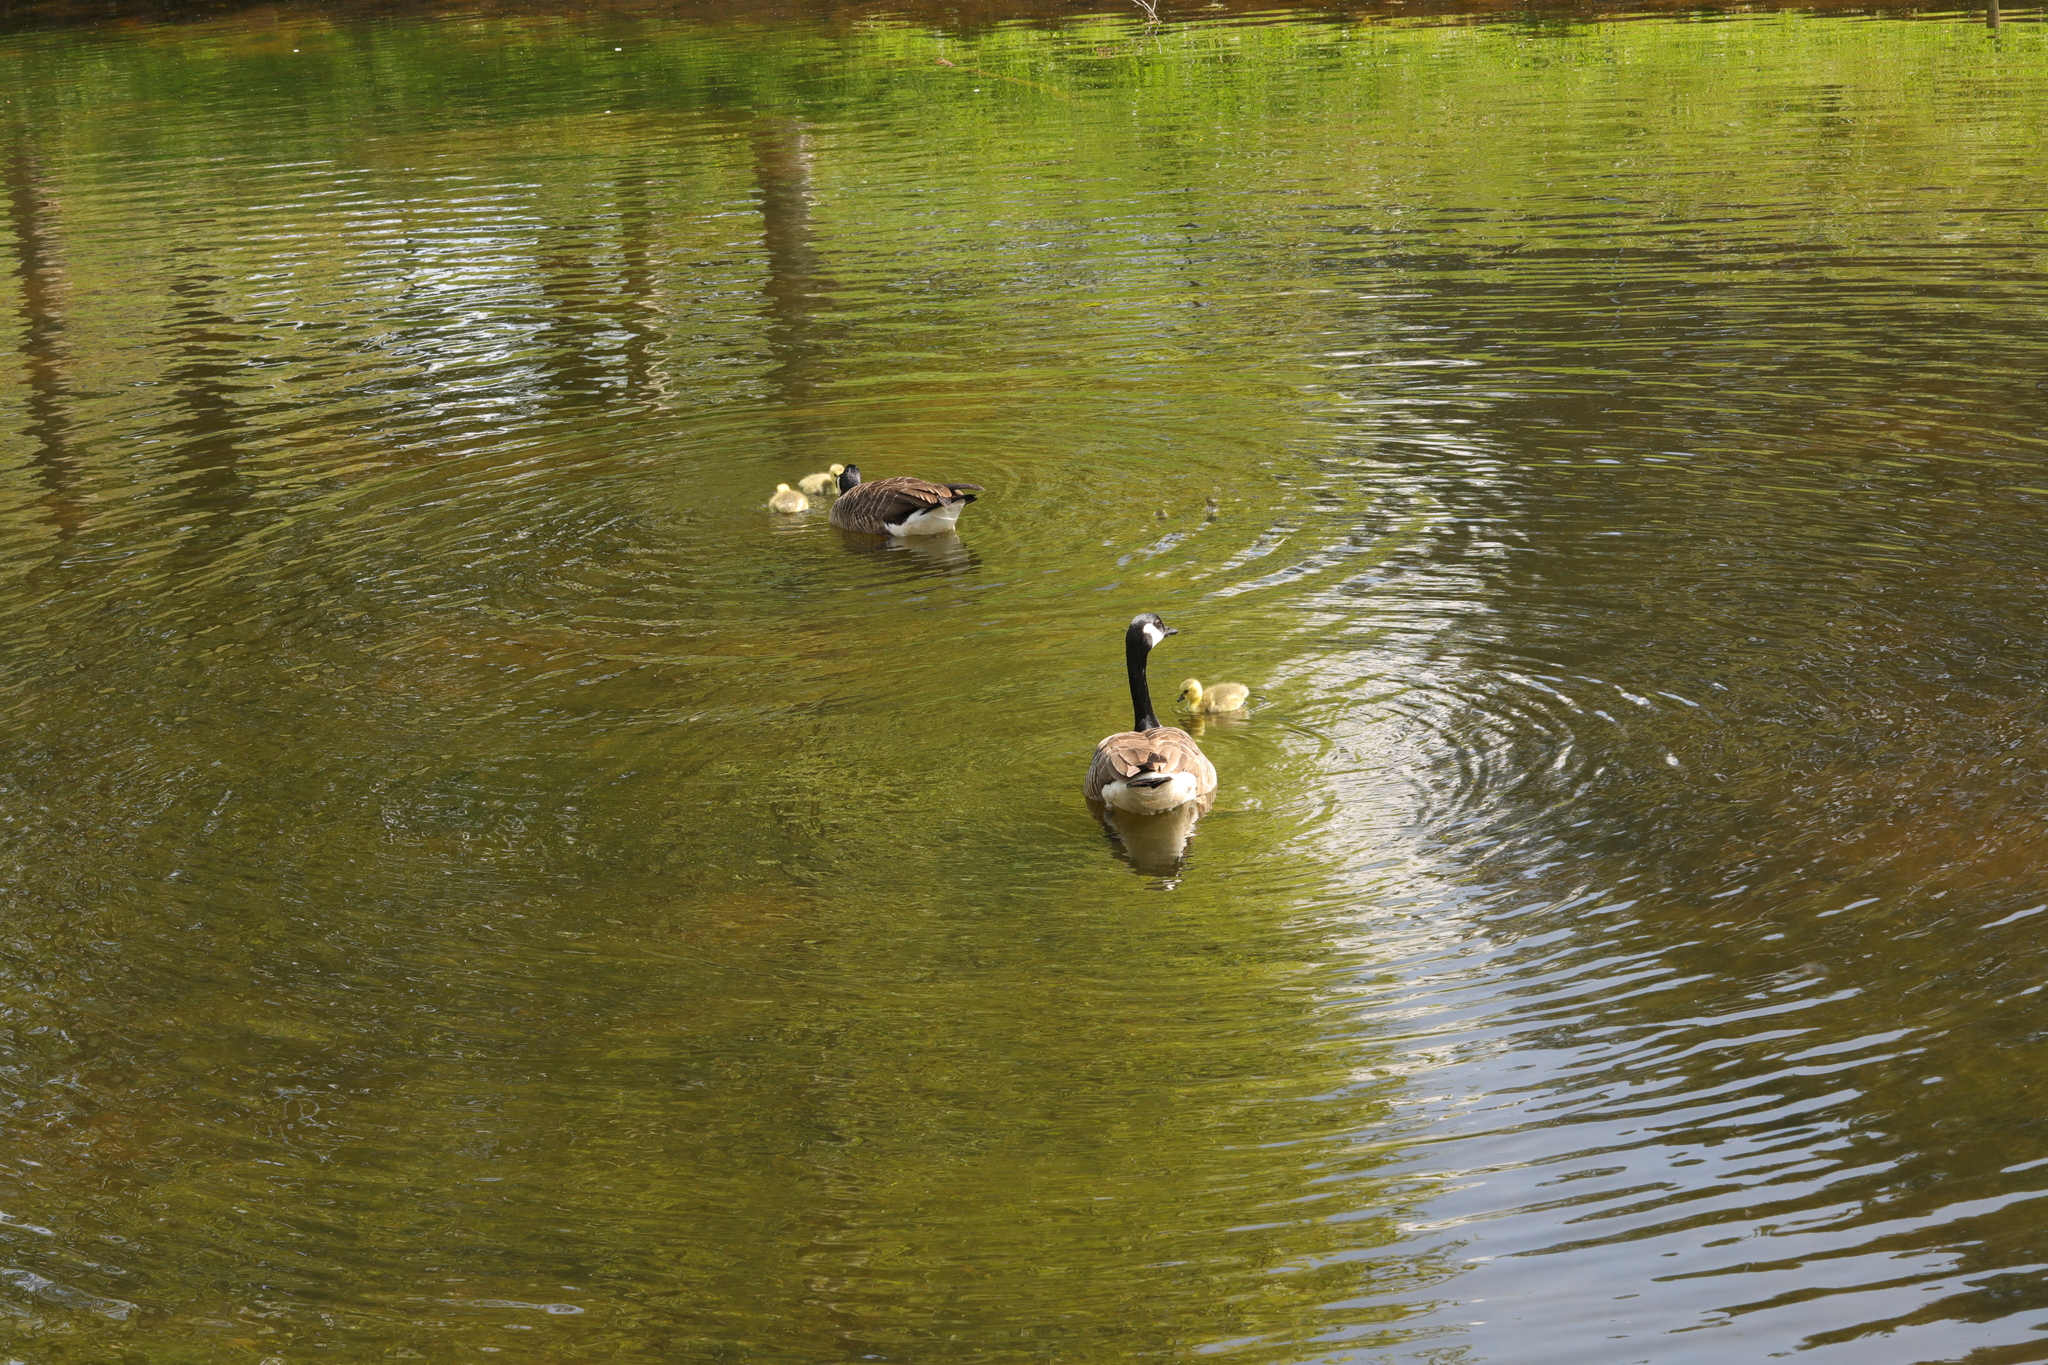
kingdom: Animalia
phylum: Chordata
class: Aves
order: Anseriformes
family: Anatidae
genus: Branta
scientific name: Branta canadensis
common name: Canada goose
